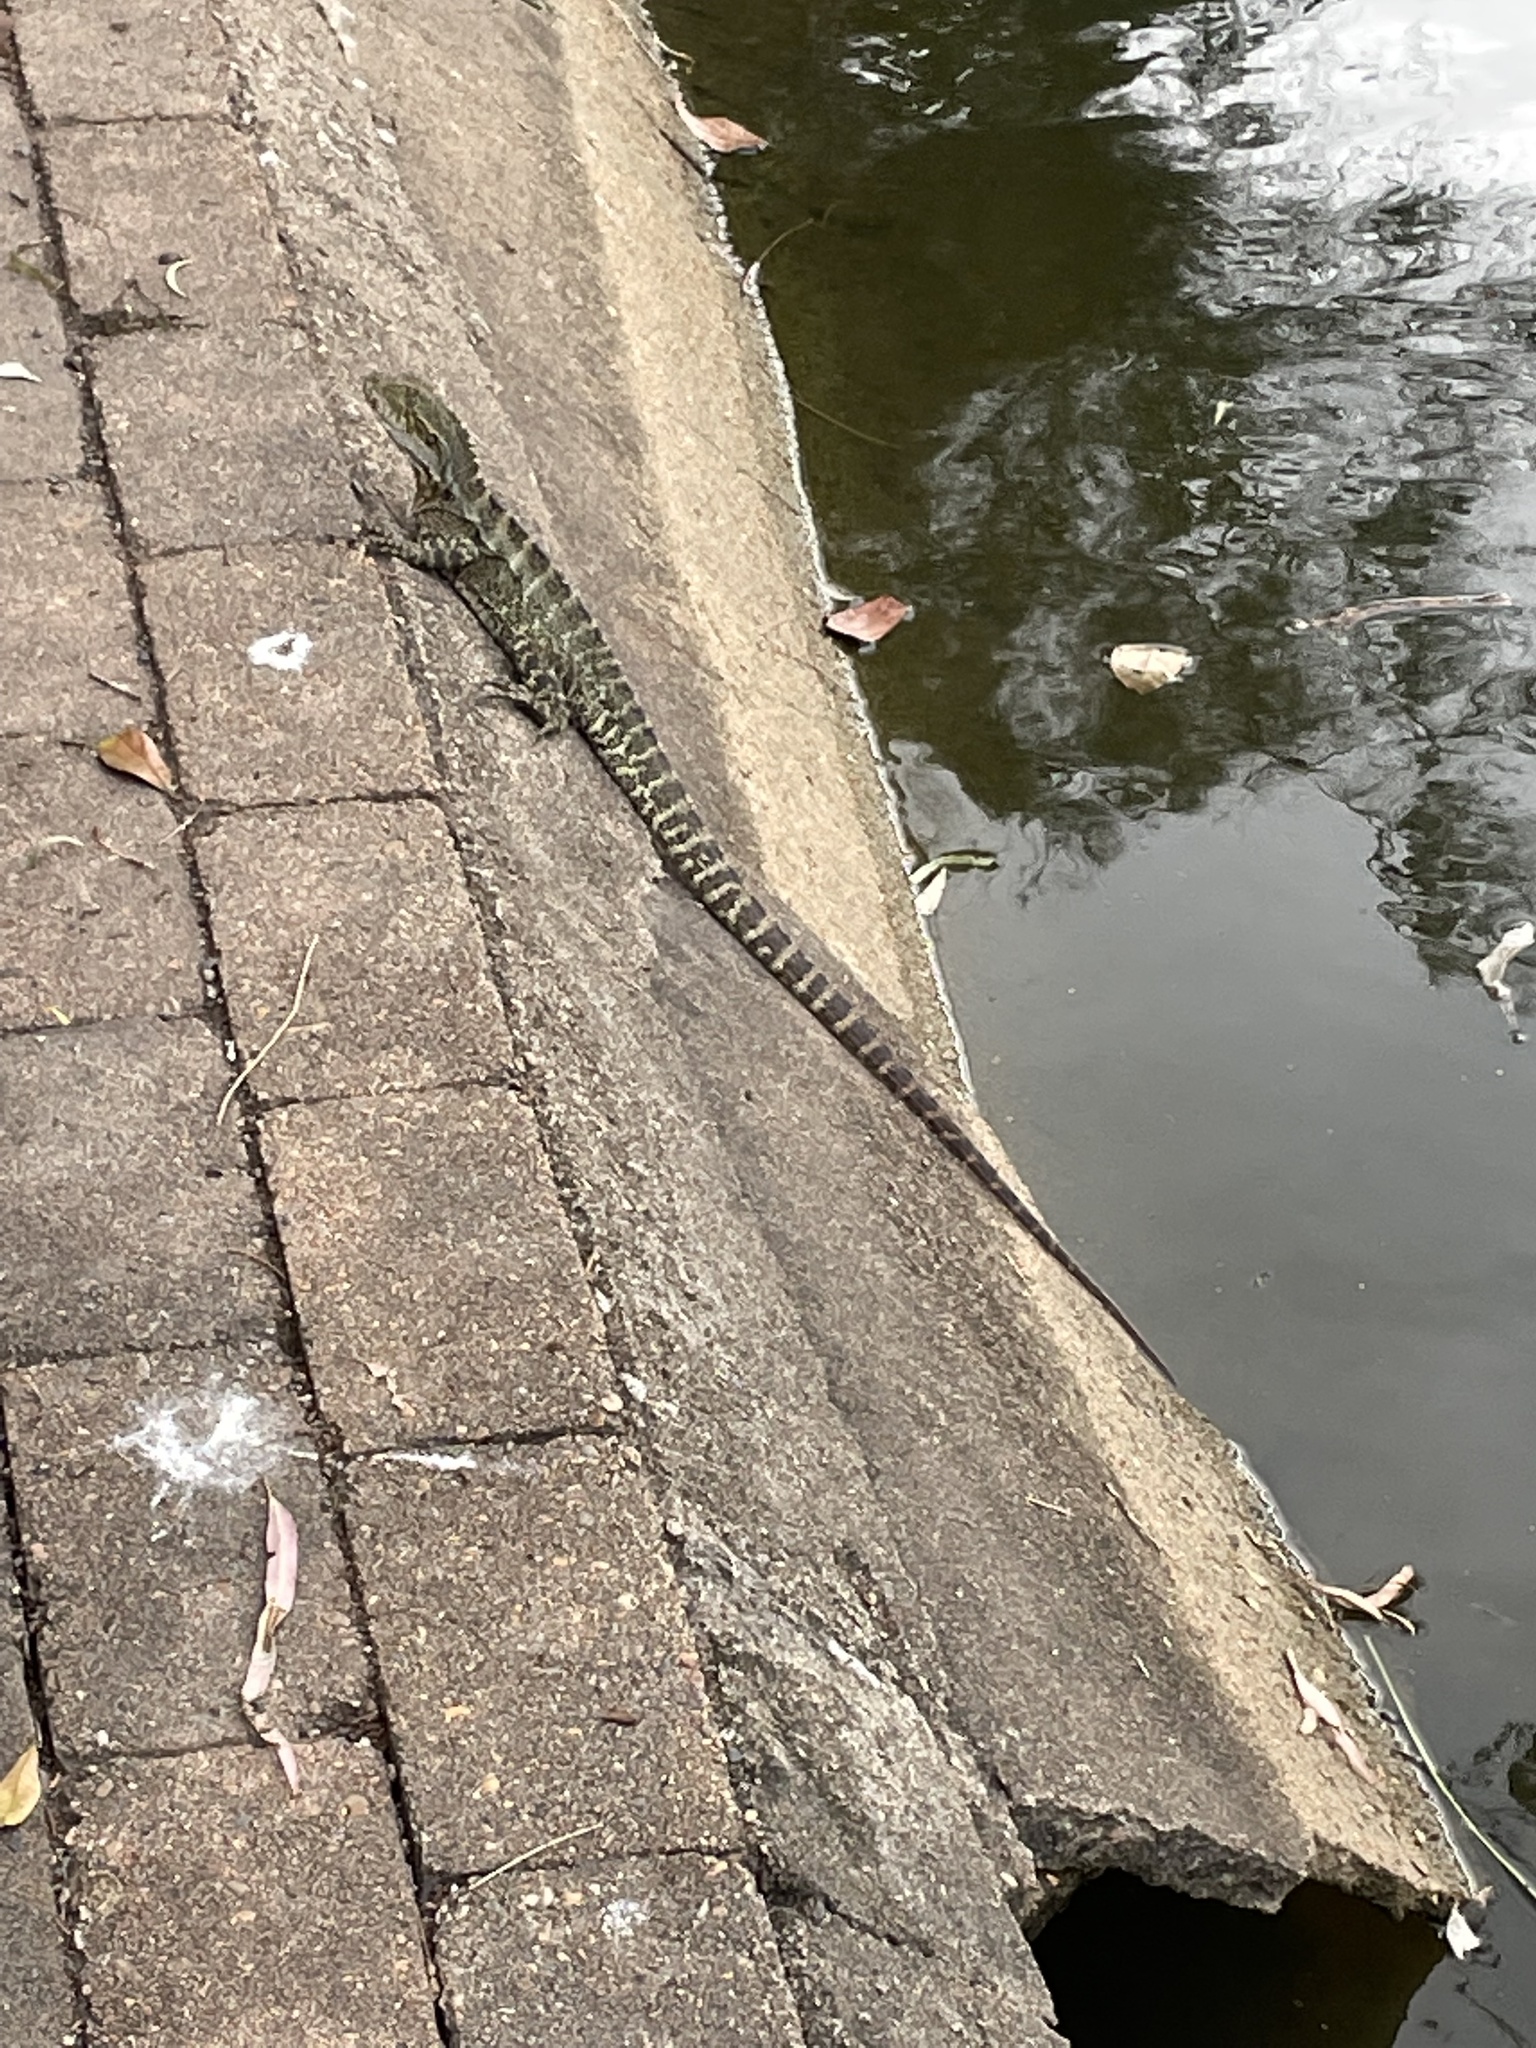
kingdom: Animalia
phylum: Chordata
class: Squamata
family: Agamidae
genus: Intellagama
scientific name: Intellagama lesueurii
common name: Eastern water dragon
